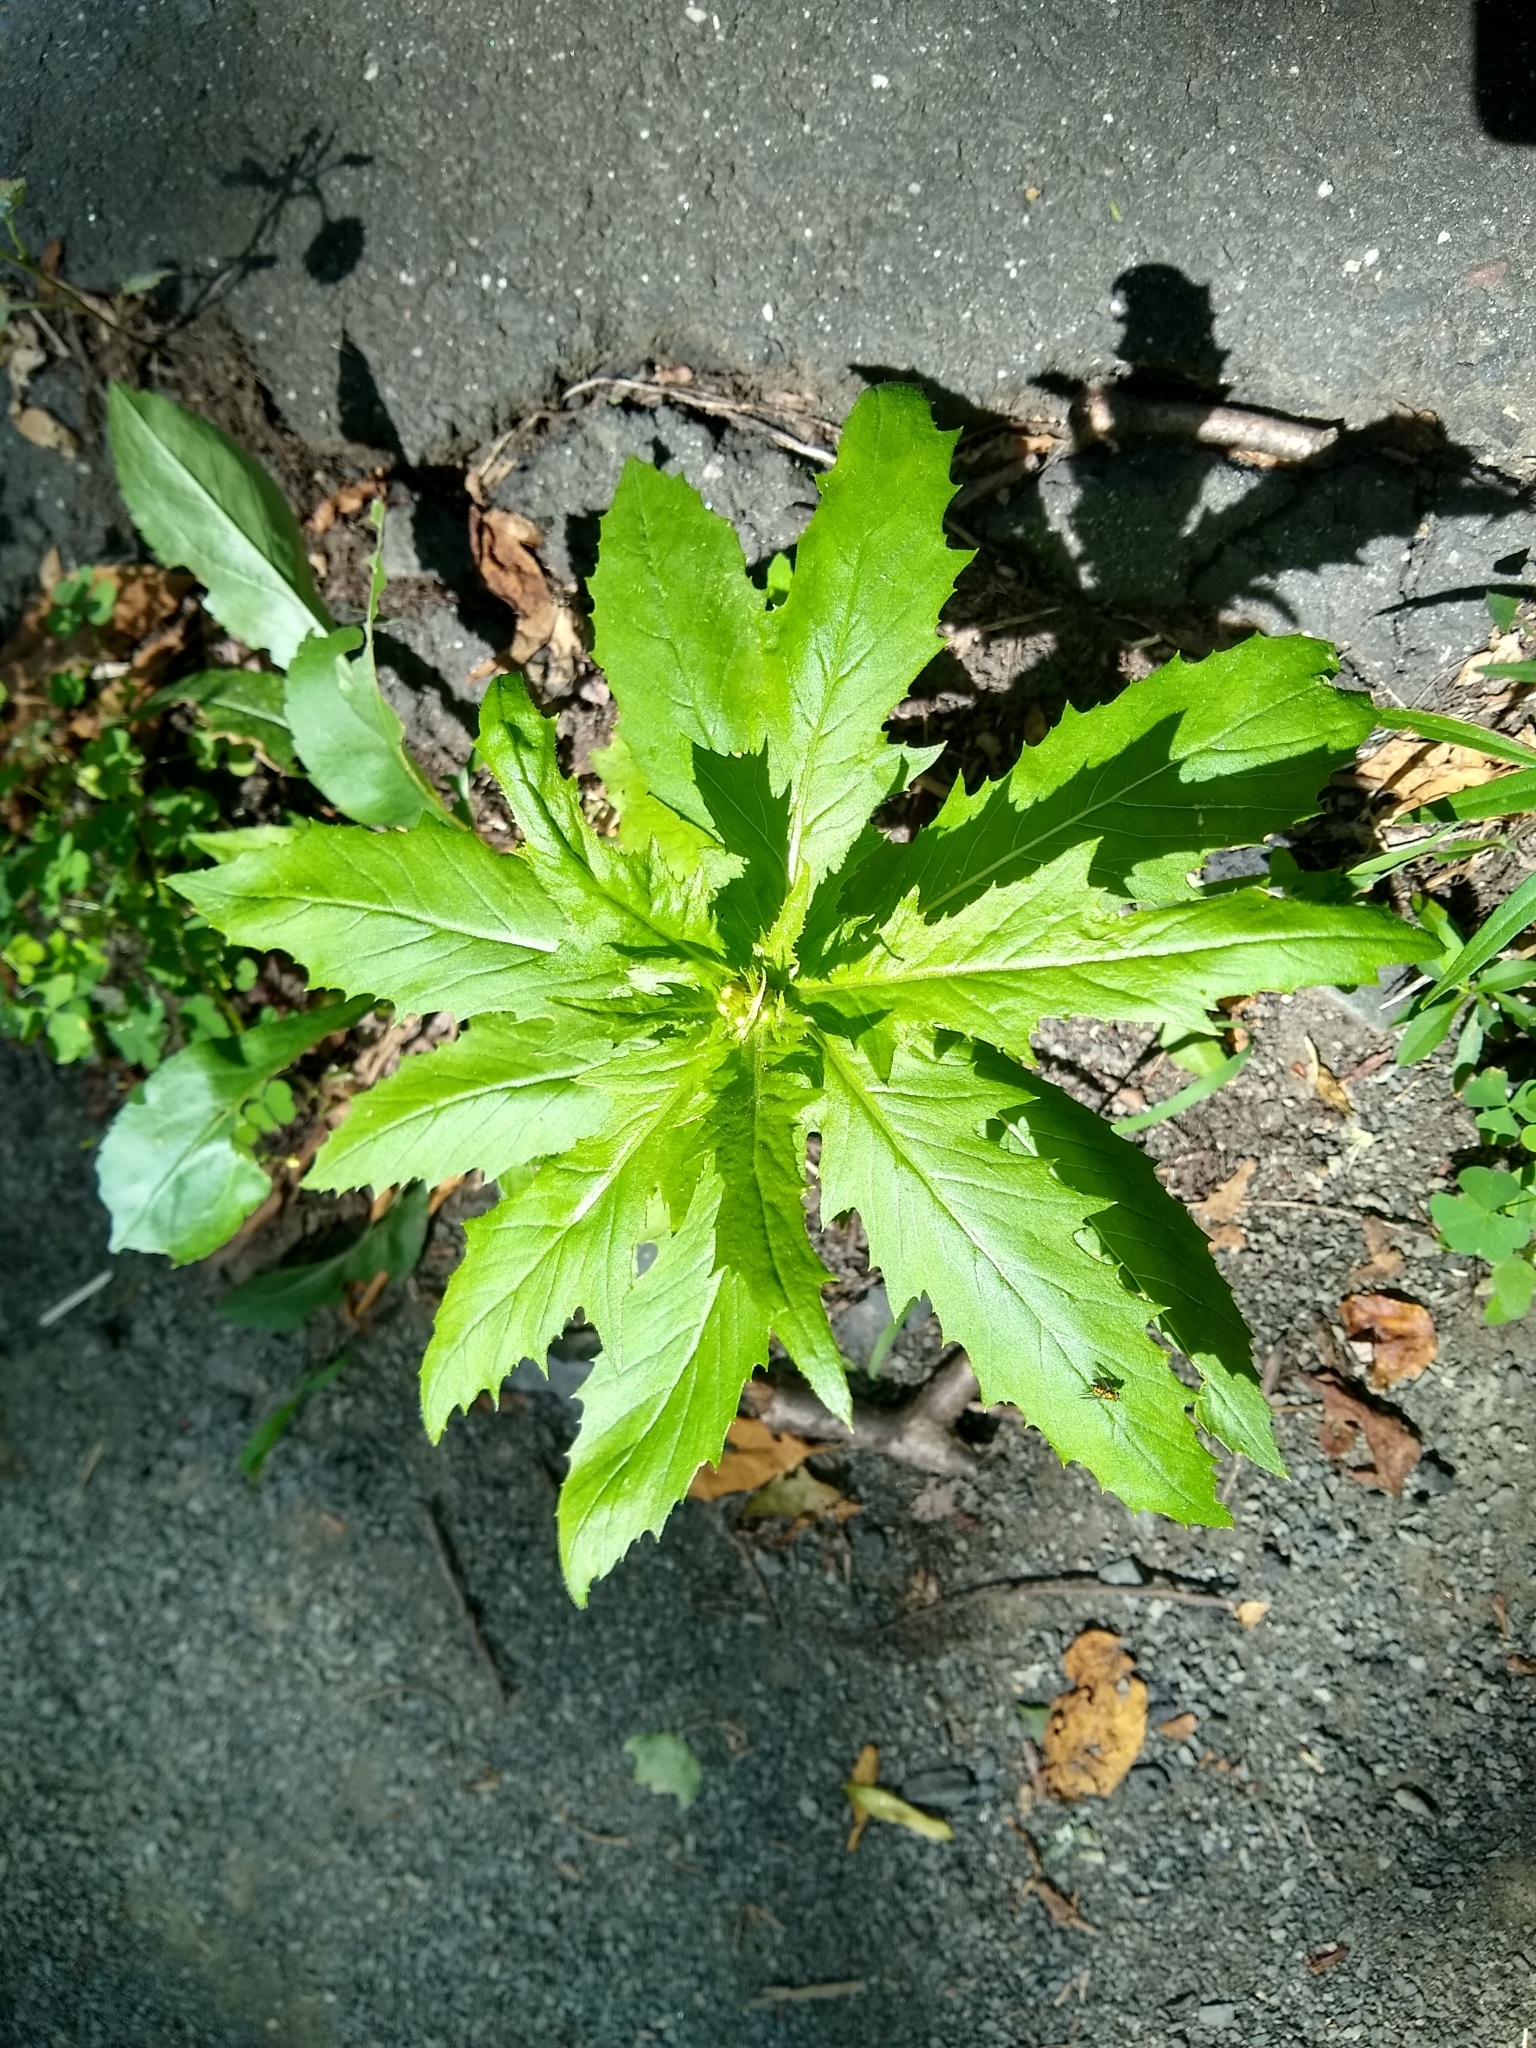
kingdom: Plantae
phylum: Tracheophyta
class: Magnoliopsida
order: Asterales
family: Asteraceae
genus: Erechtites
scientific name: Erechtites hieraciifolius
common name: American burnweed
